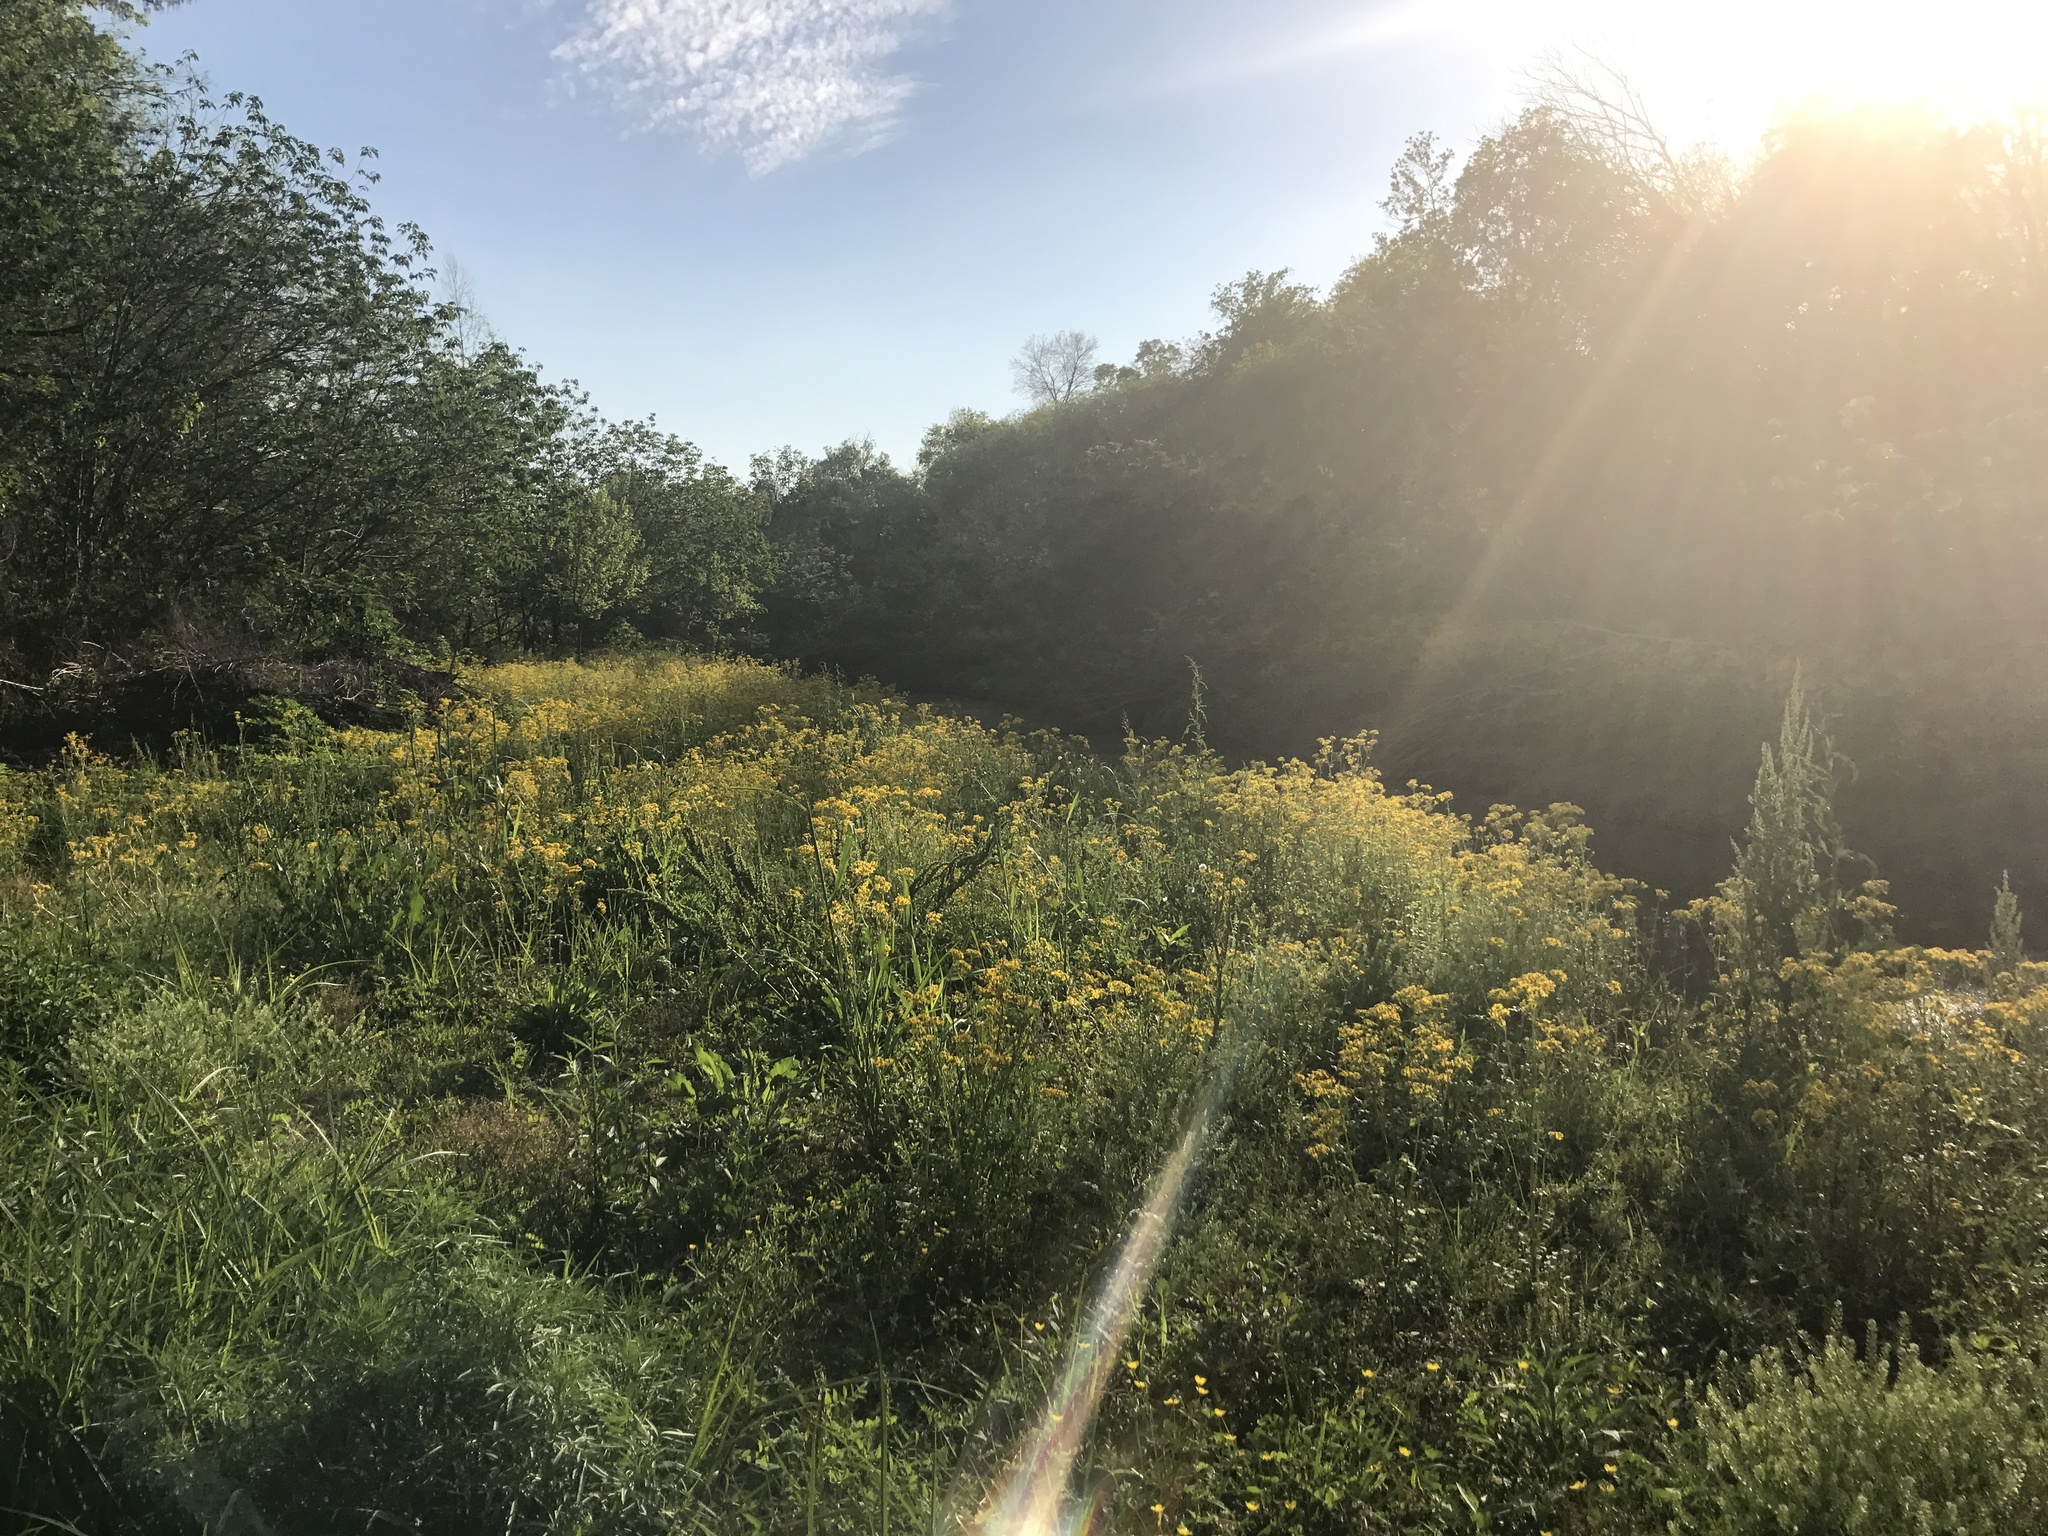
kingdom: Plantae
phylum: Tracheophyta
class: Magnoliopsida
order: Asterales
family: Asteraceae
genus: Packera
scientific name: Packera glabella
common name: Butterweed
